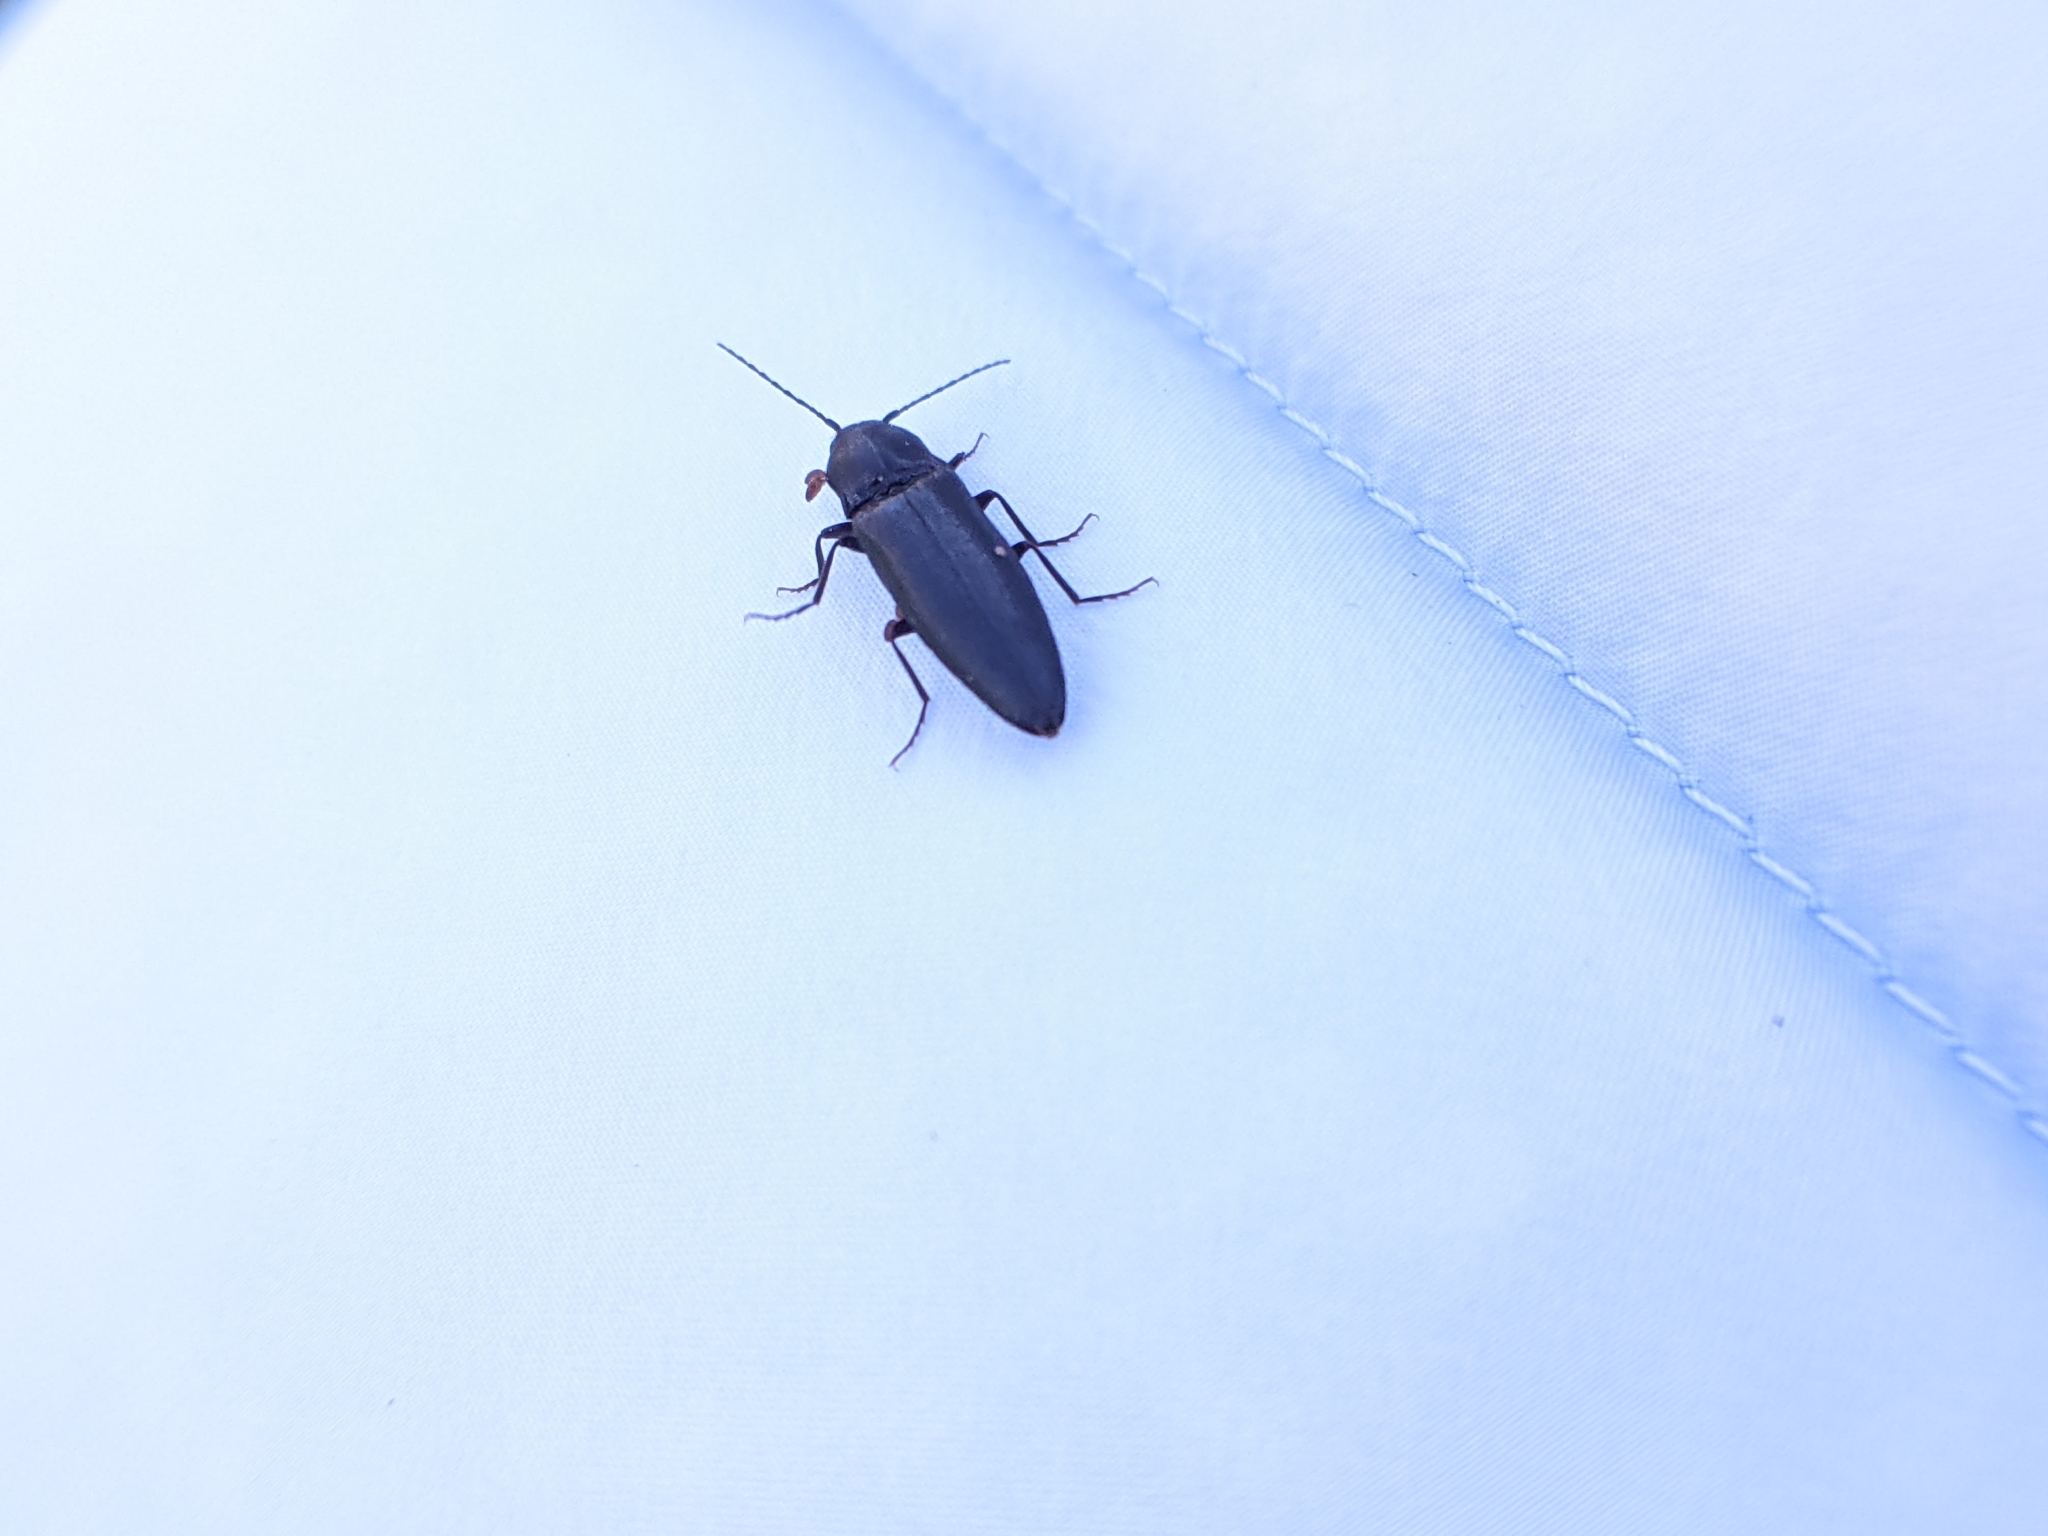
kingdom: Animalia
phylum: Arthropoda
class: Insecta
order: Coleoptera
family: Elateridae
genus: Ectinus
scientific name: Ectinus aterrimus
